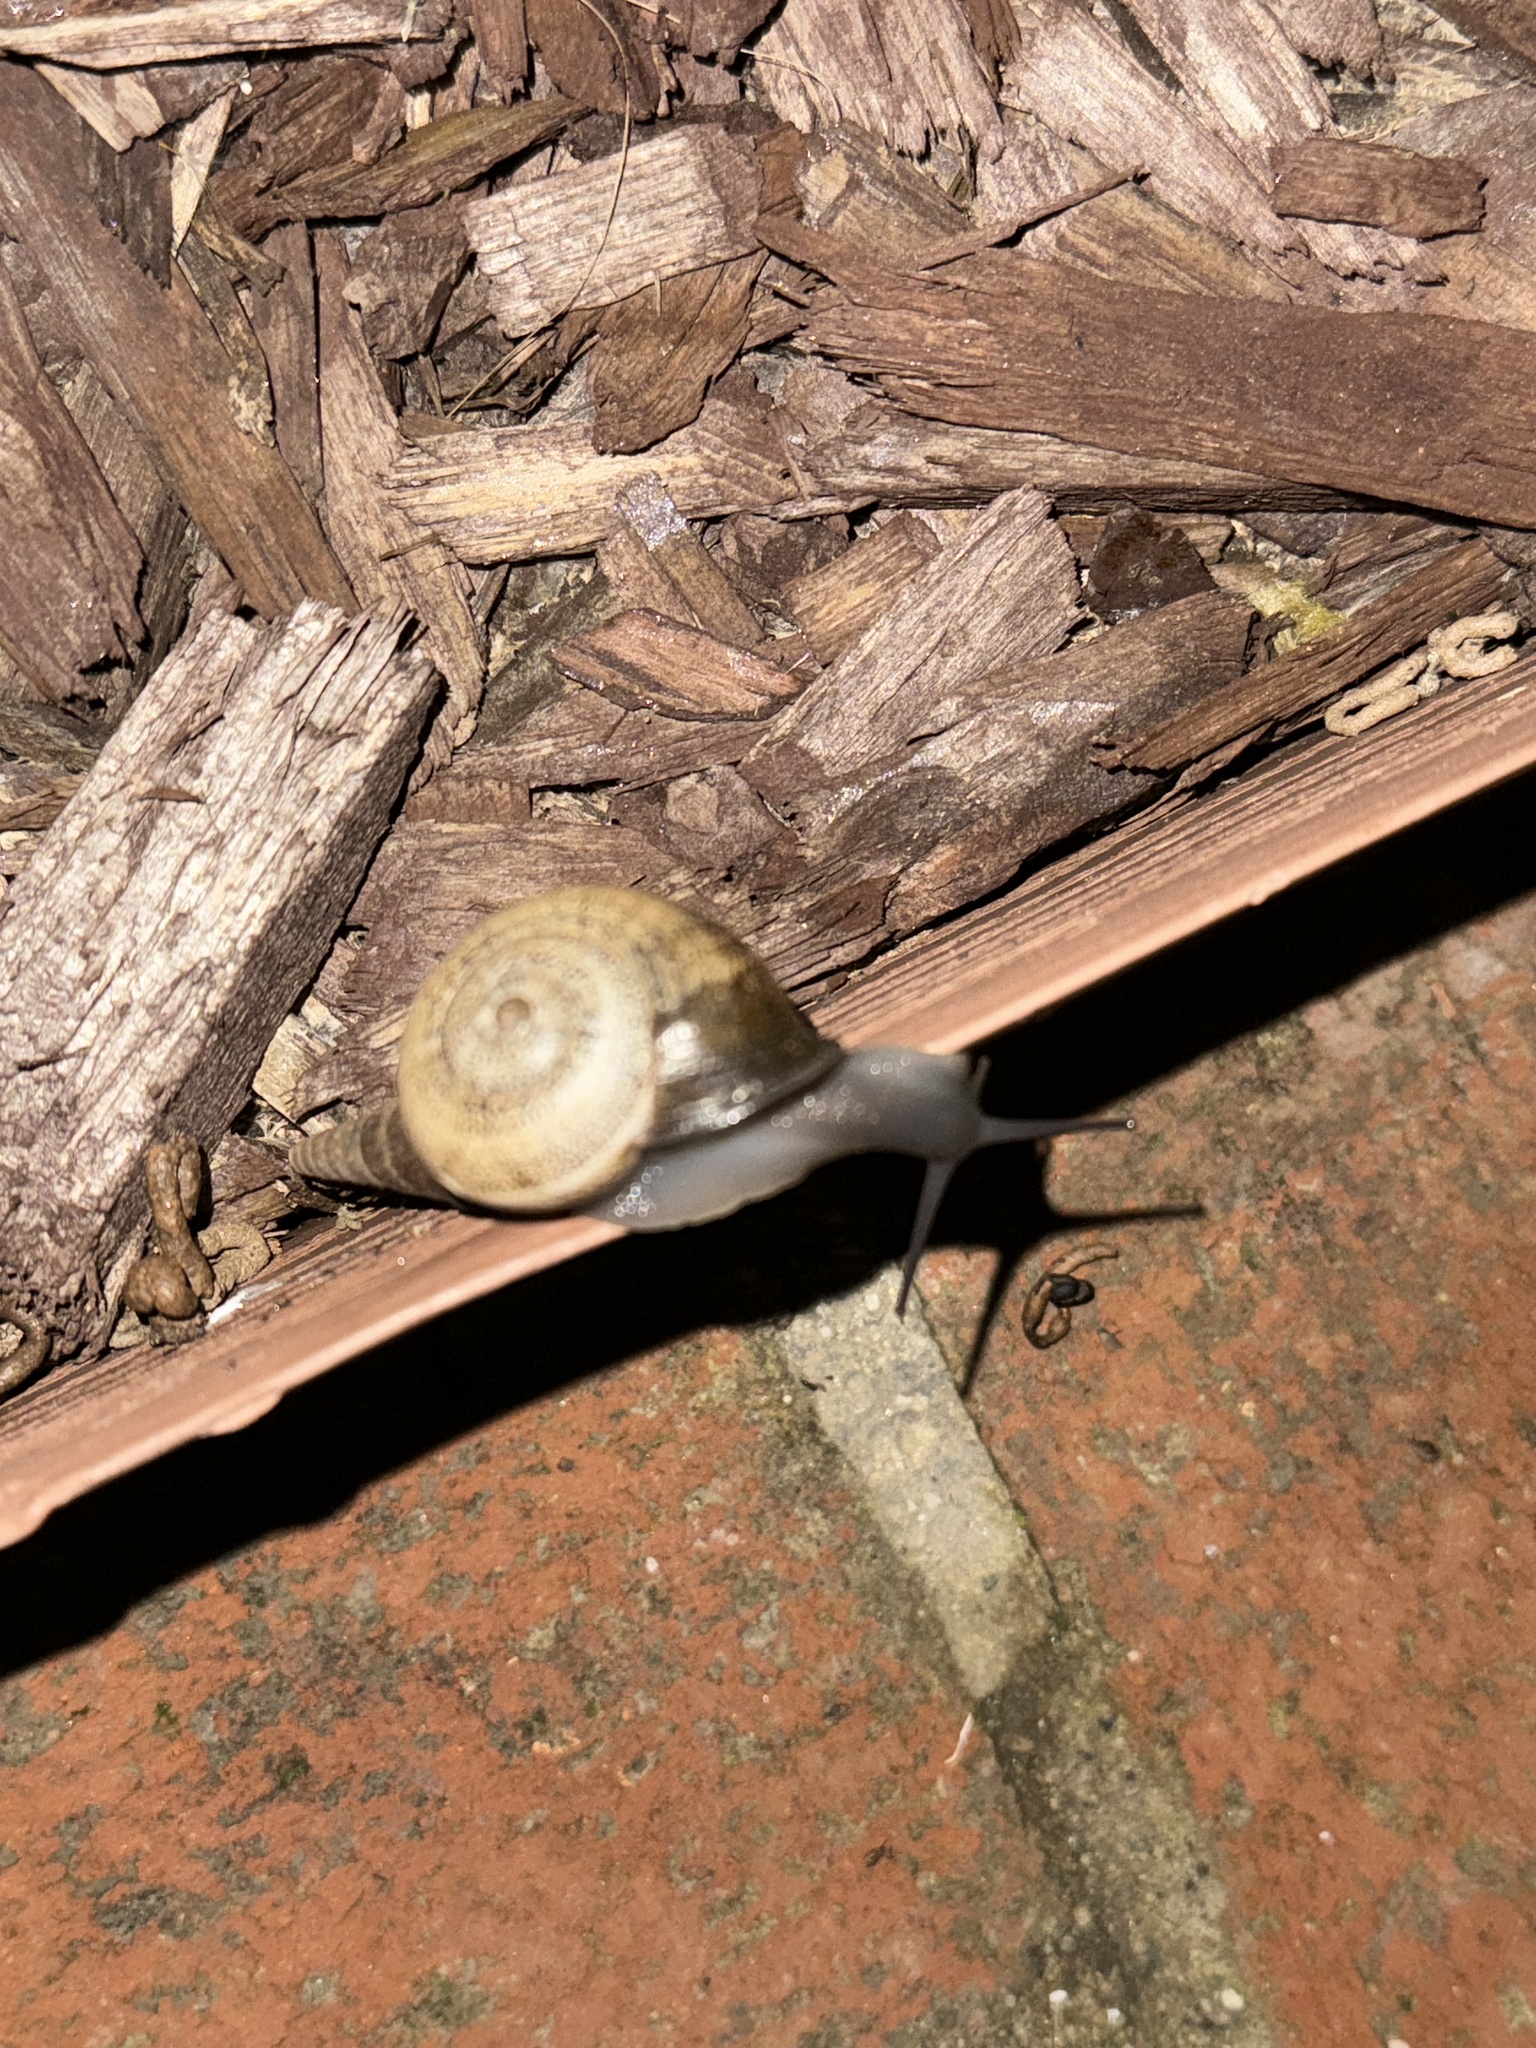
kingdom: Animalia
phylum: Mollusca
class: Gastropoda
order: Stylommatophora
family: Helicidae
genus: Otala
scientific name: Otala lactea
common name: Milk snail
